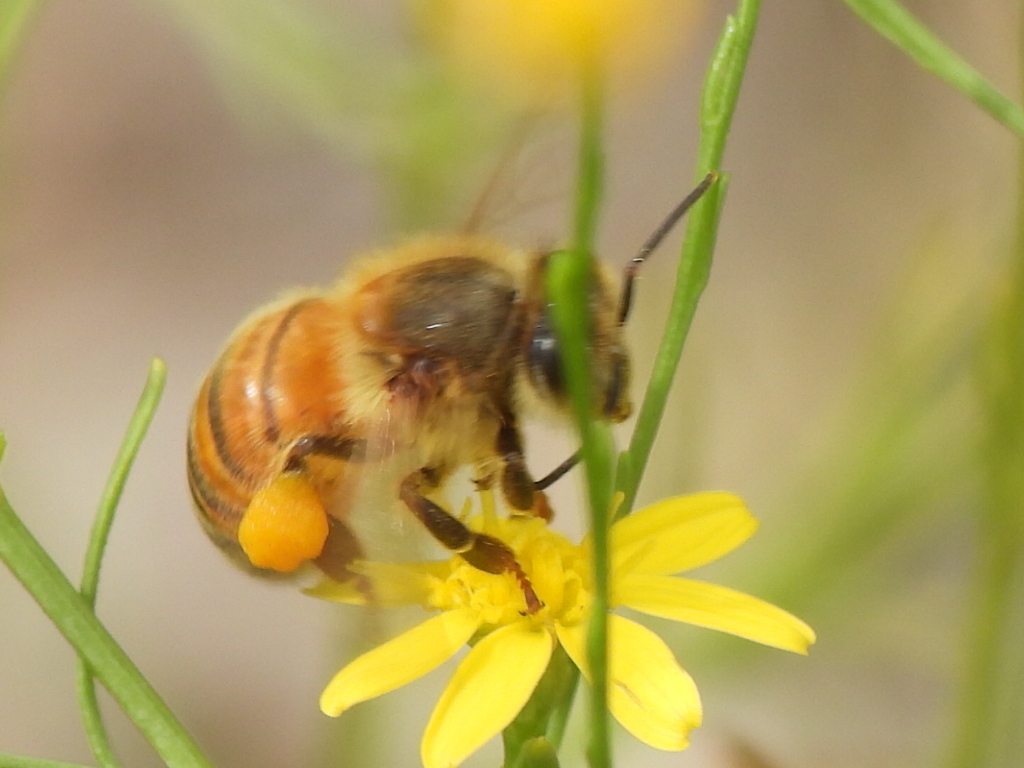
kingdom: Animalia
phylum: Arthropoda
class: Insecta
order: Hymenoptera
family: Apidae
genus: Apis
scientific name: Apis mellifera
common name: Honey bee
